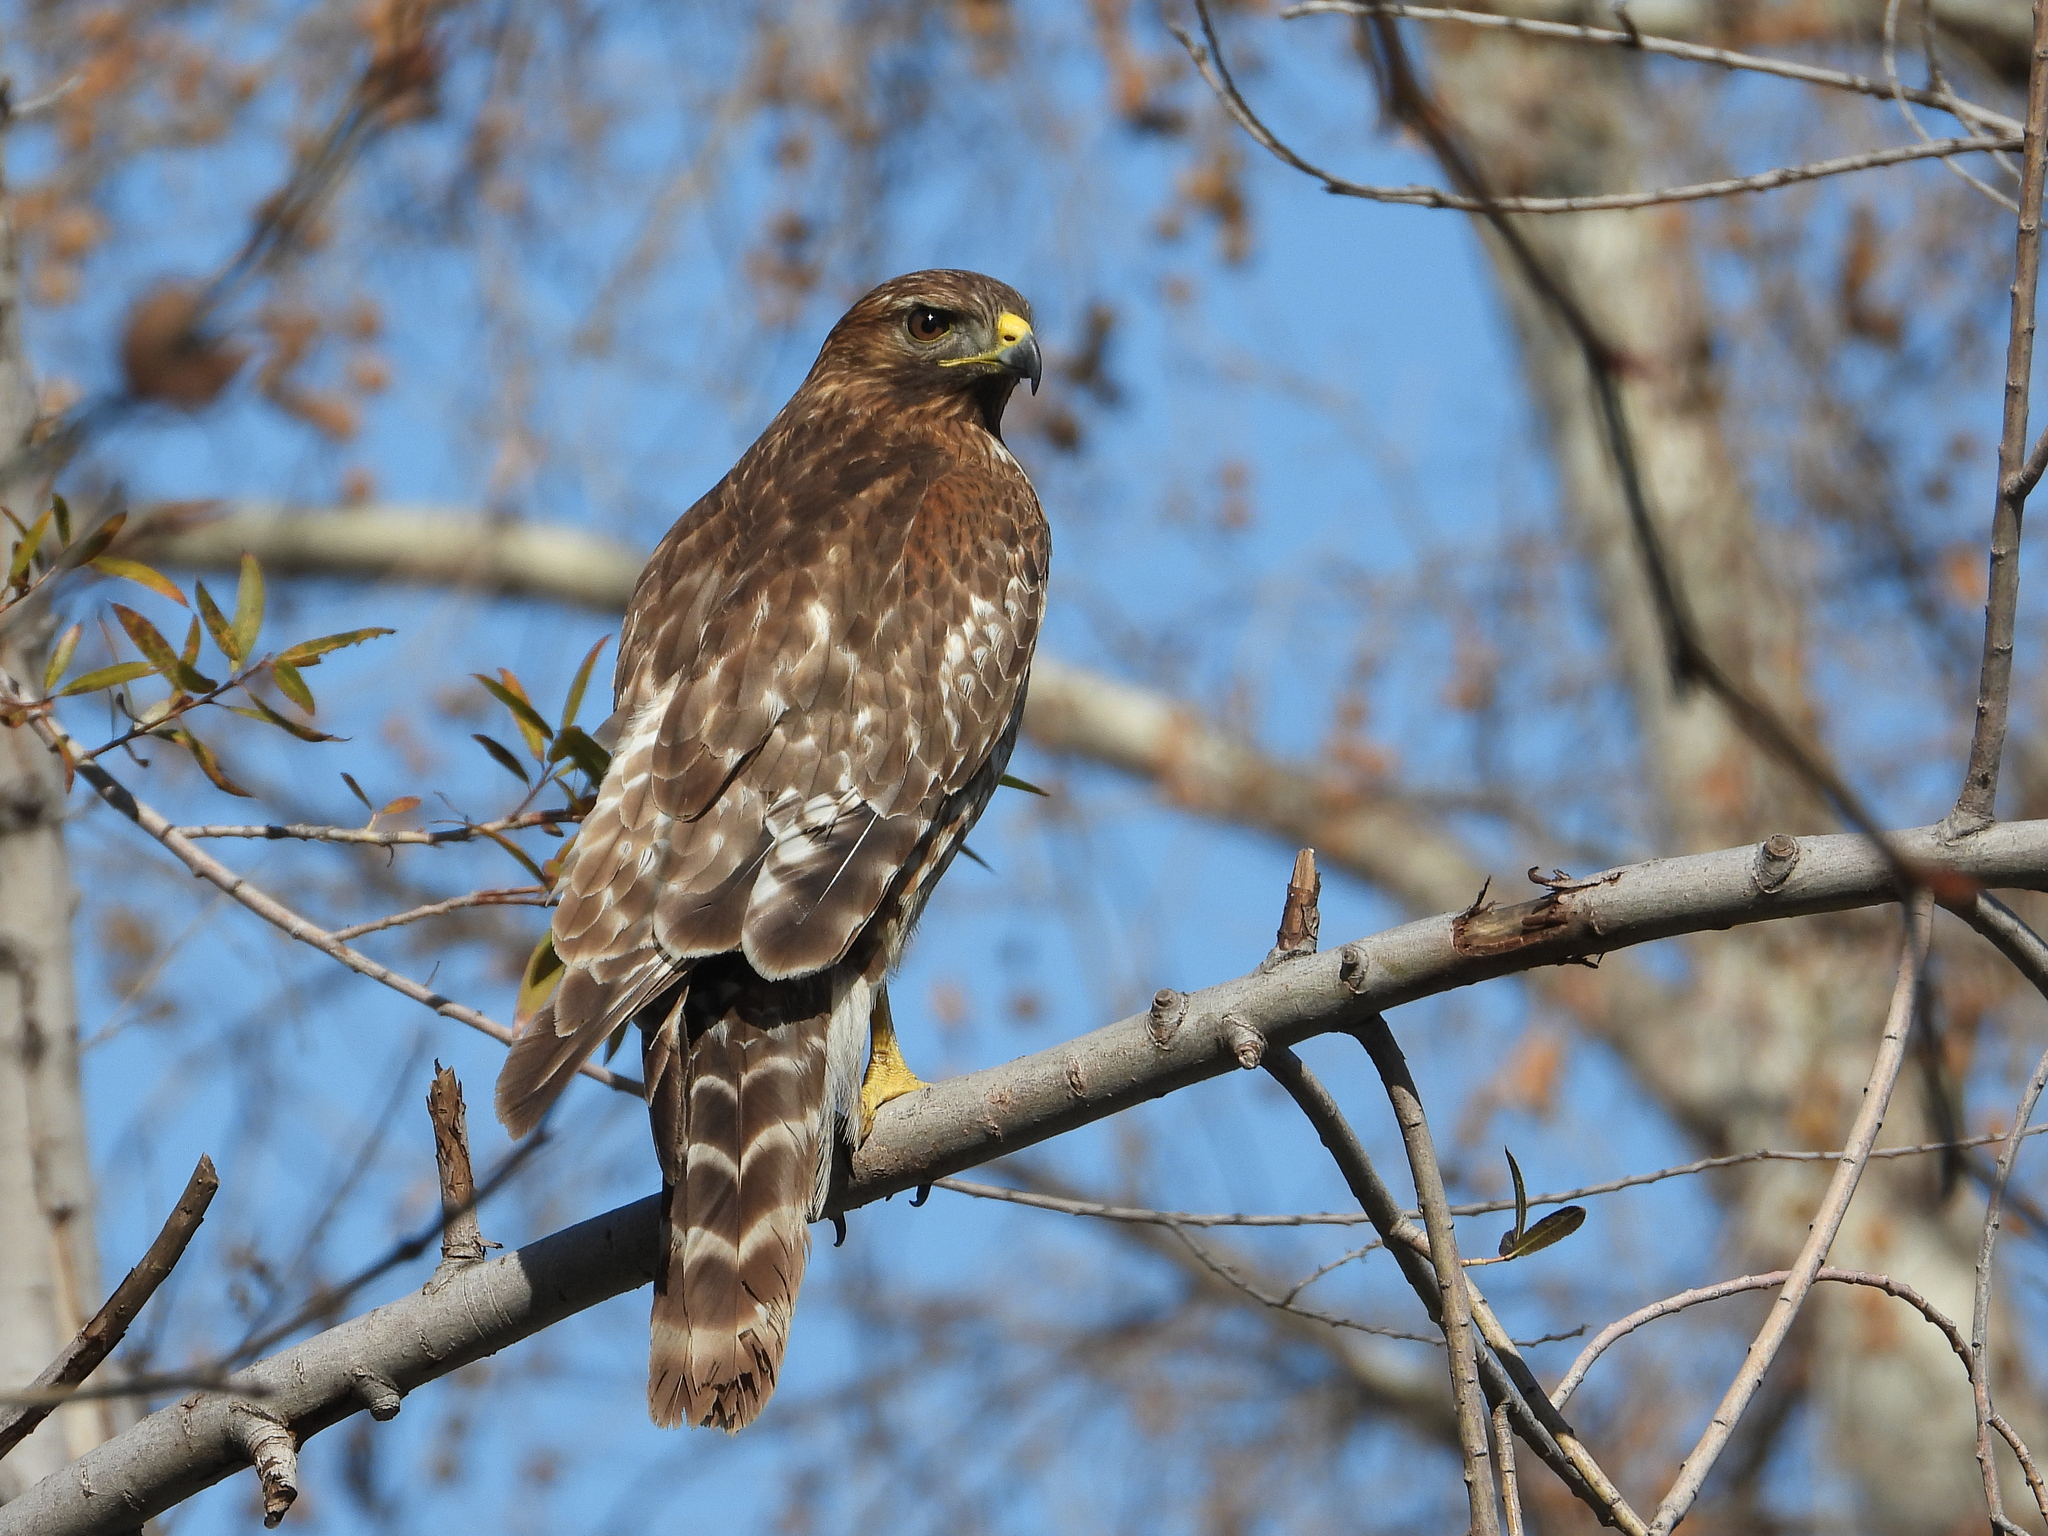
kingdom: Animalia
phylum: Chordata
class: Aves
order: Accipitriformes
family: Accipitridae
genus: Buteo
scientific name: Buteo lineatus
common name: Red-shouldered hawk
